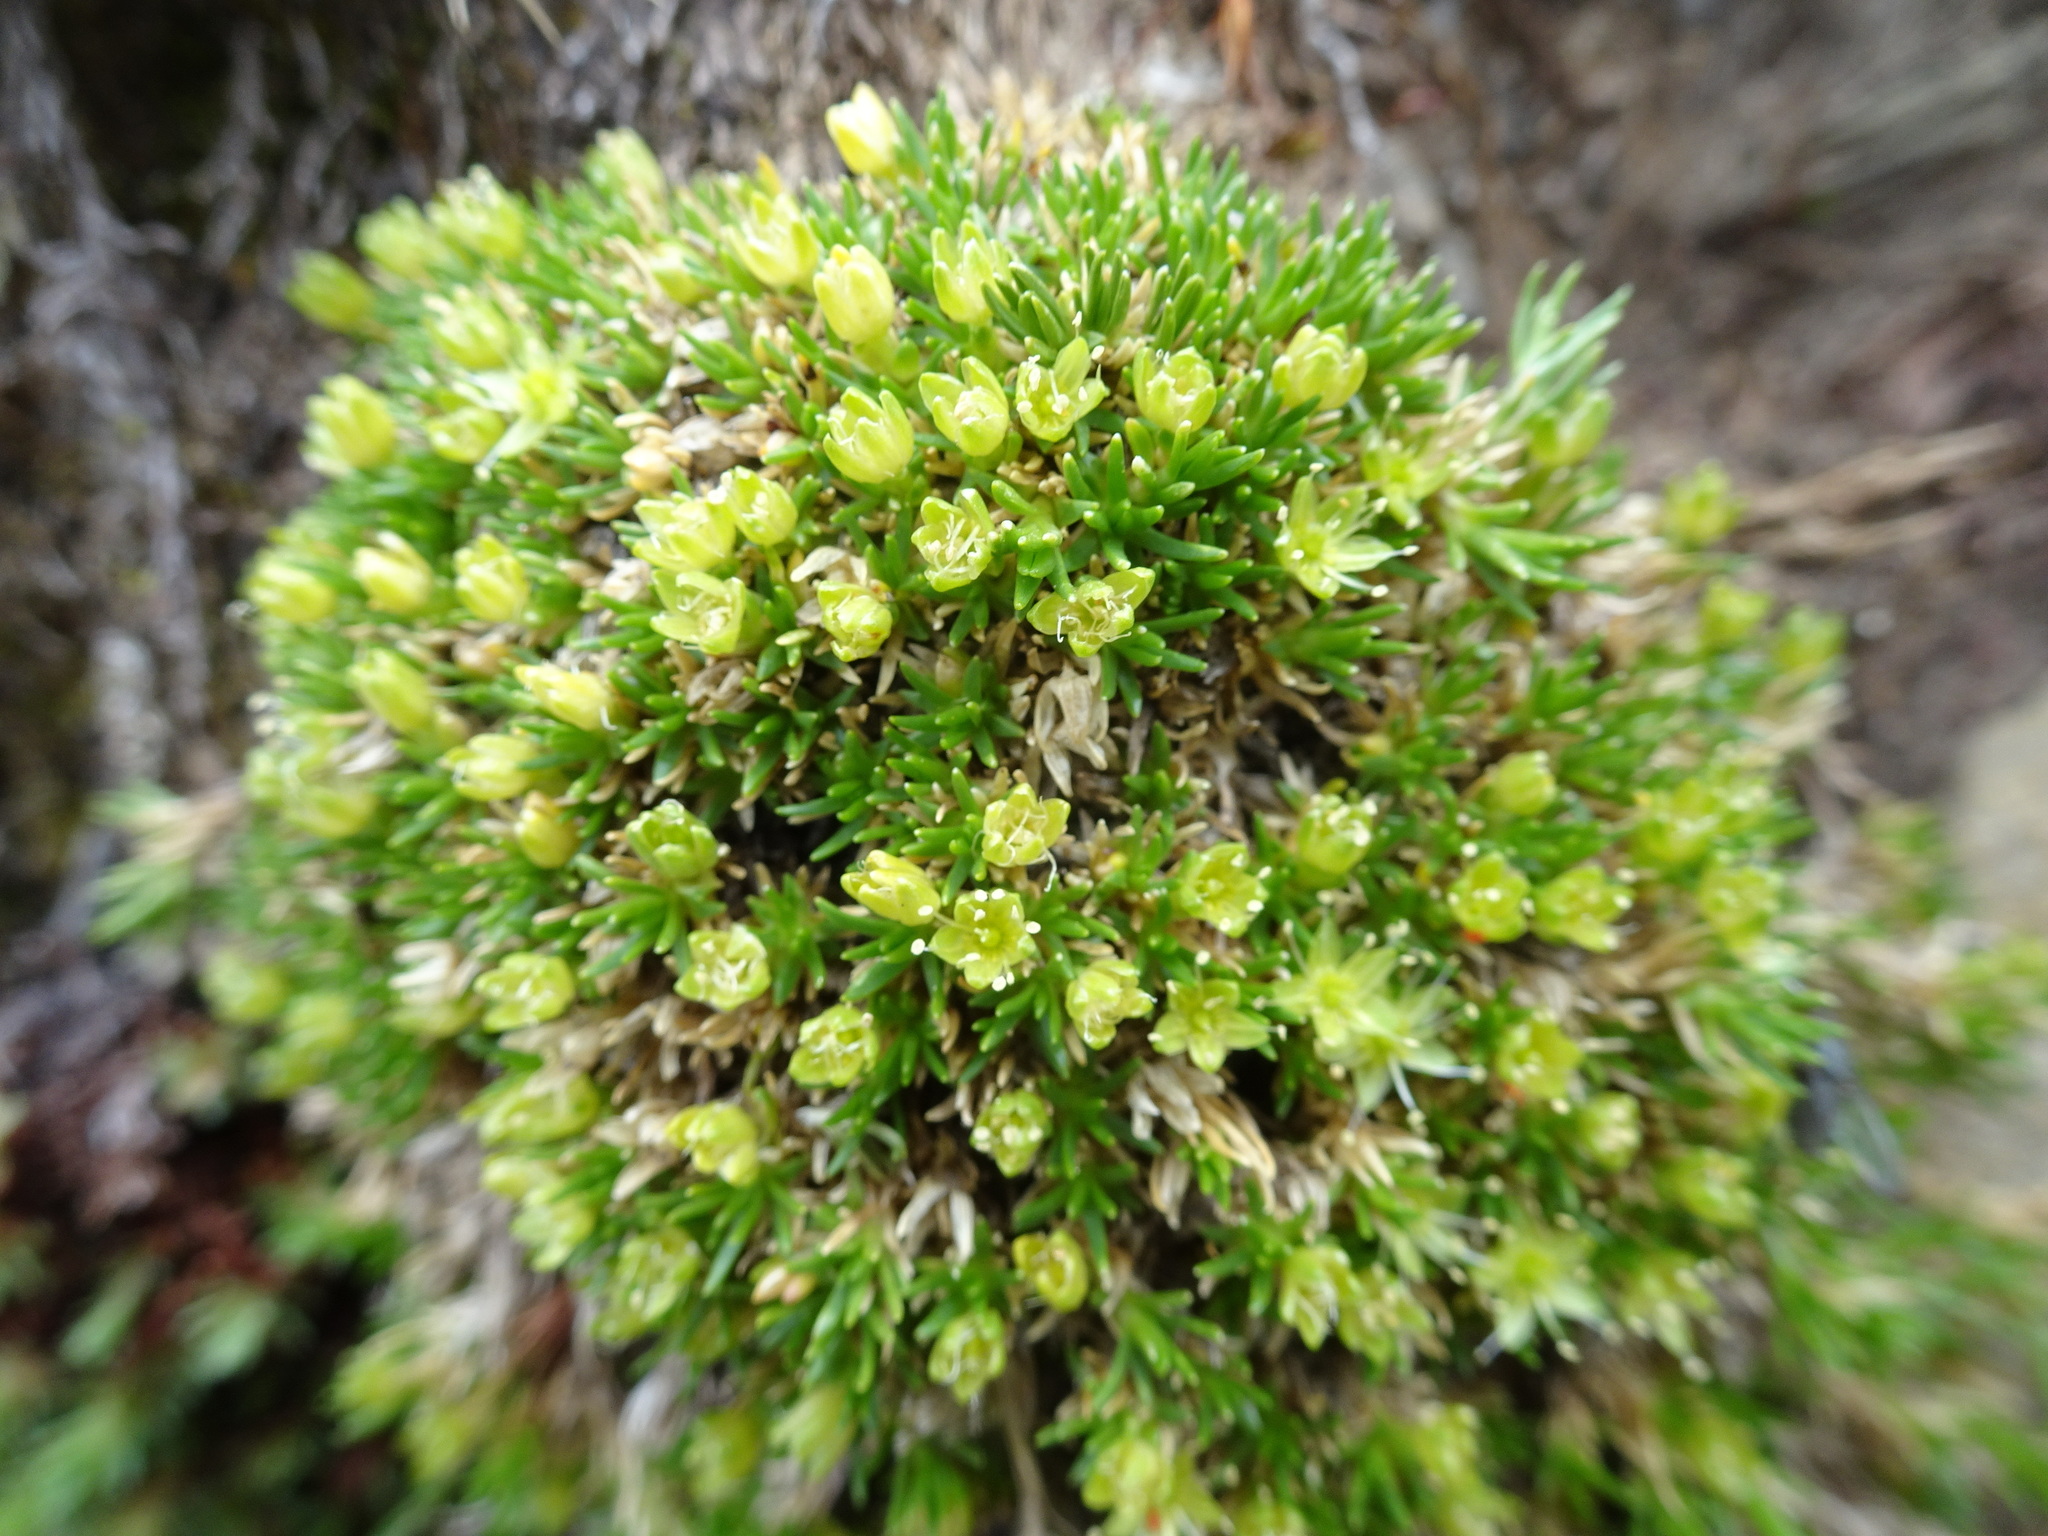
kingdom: Plantae
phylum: Tracheophyta
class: Magnoliopsida
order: Caryophyllales
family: Caryophyllaceae
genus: Cherleria
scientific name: Cherleria sedoides
